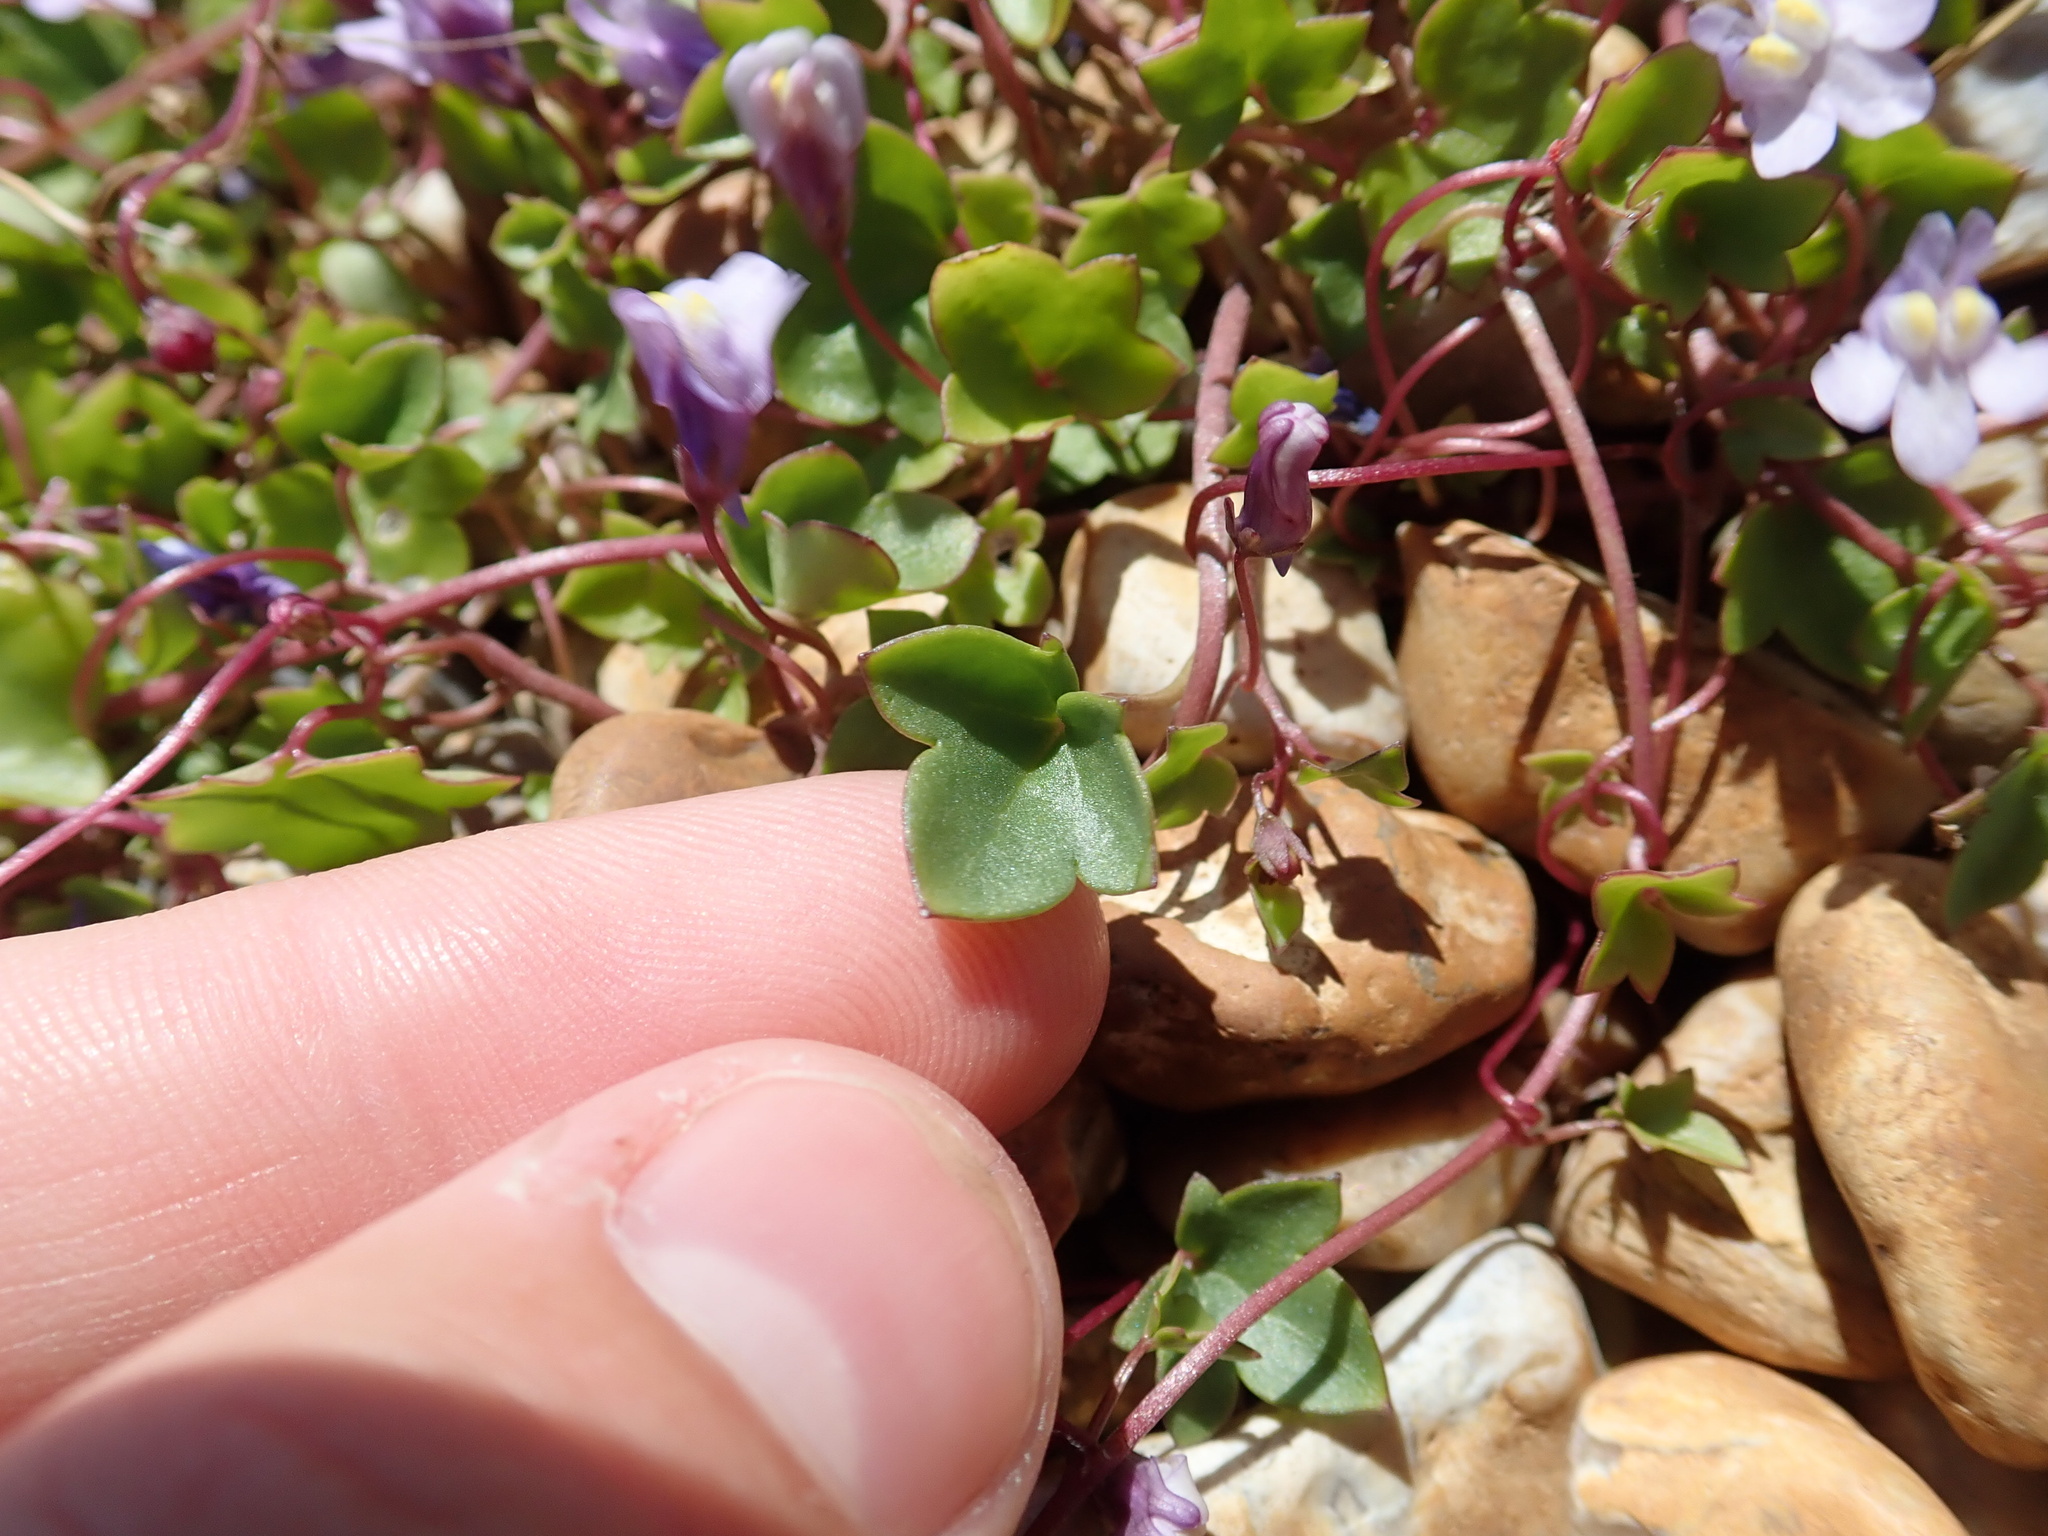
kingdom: Plantae
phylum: Tracheophyta
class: Magnoliopsida
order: Lamiales
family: Plantaginaceae
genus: Cymbalaria
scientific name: Cymbalaria muralis
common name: Ivy-leaved toadflax
